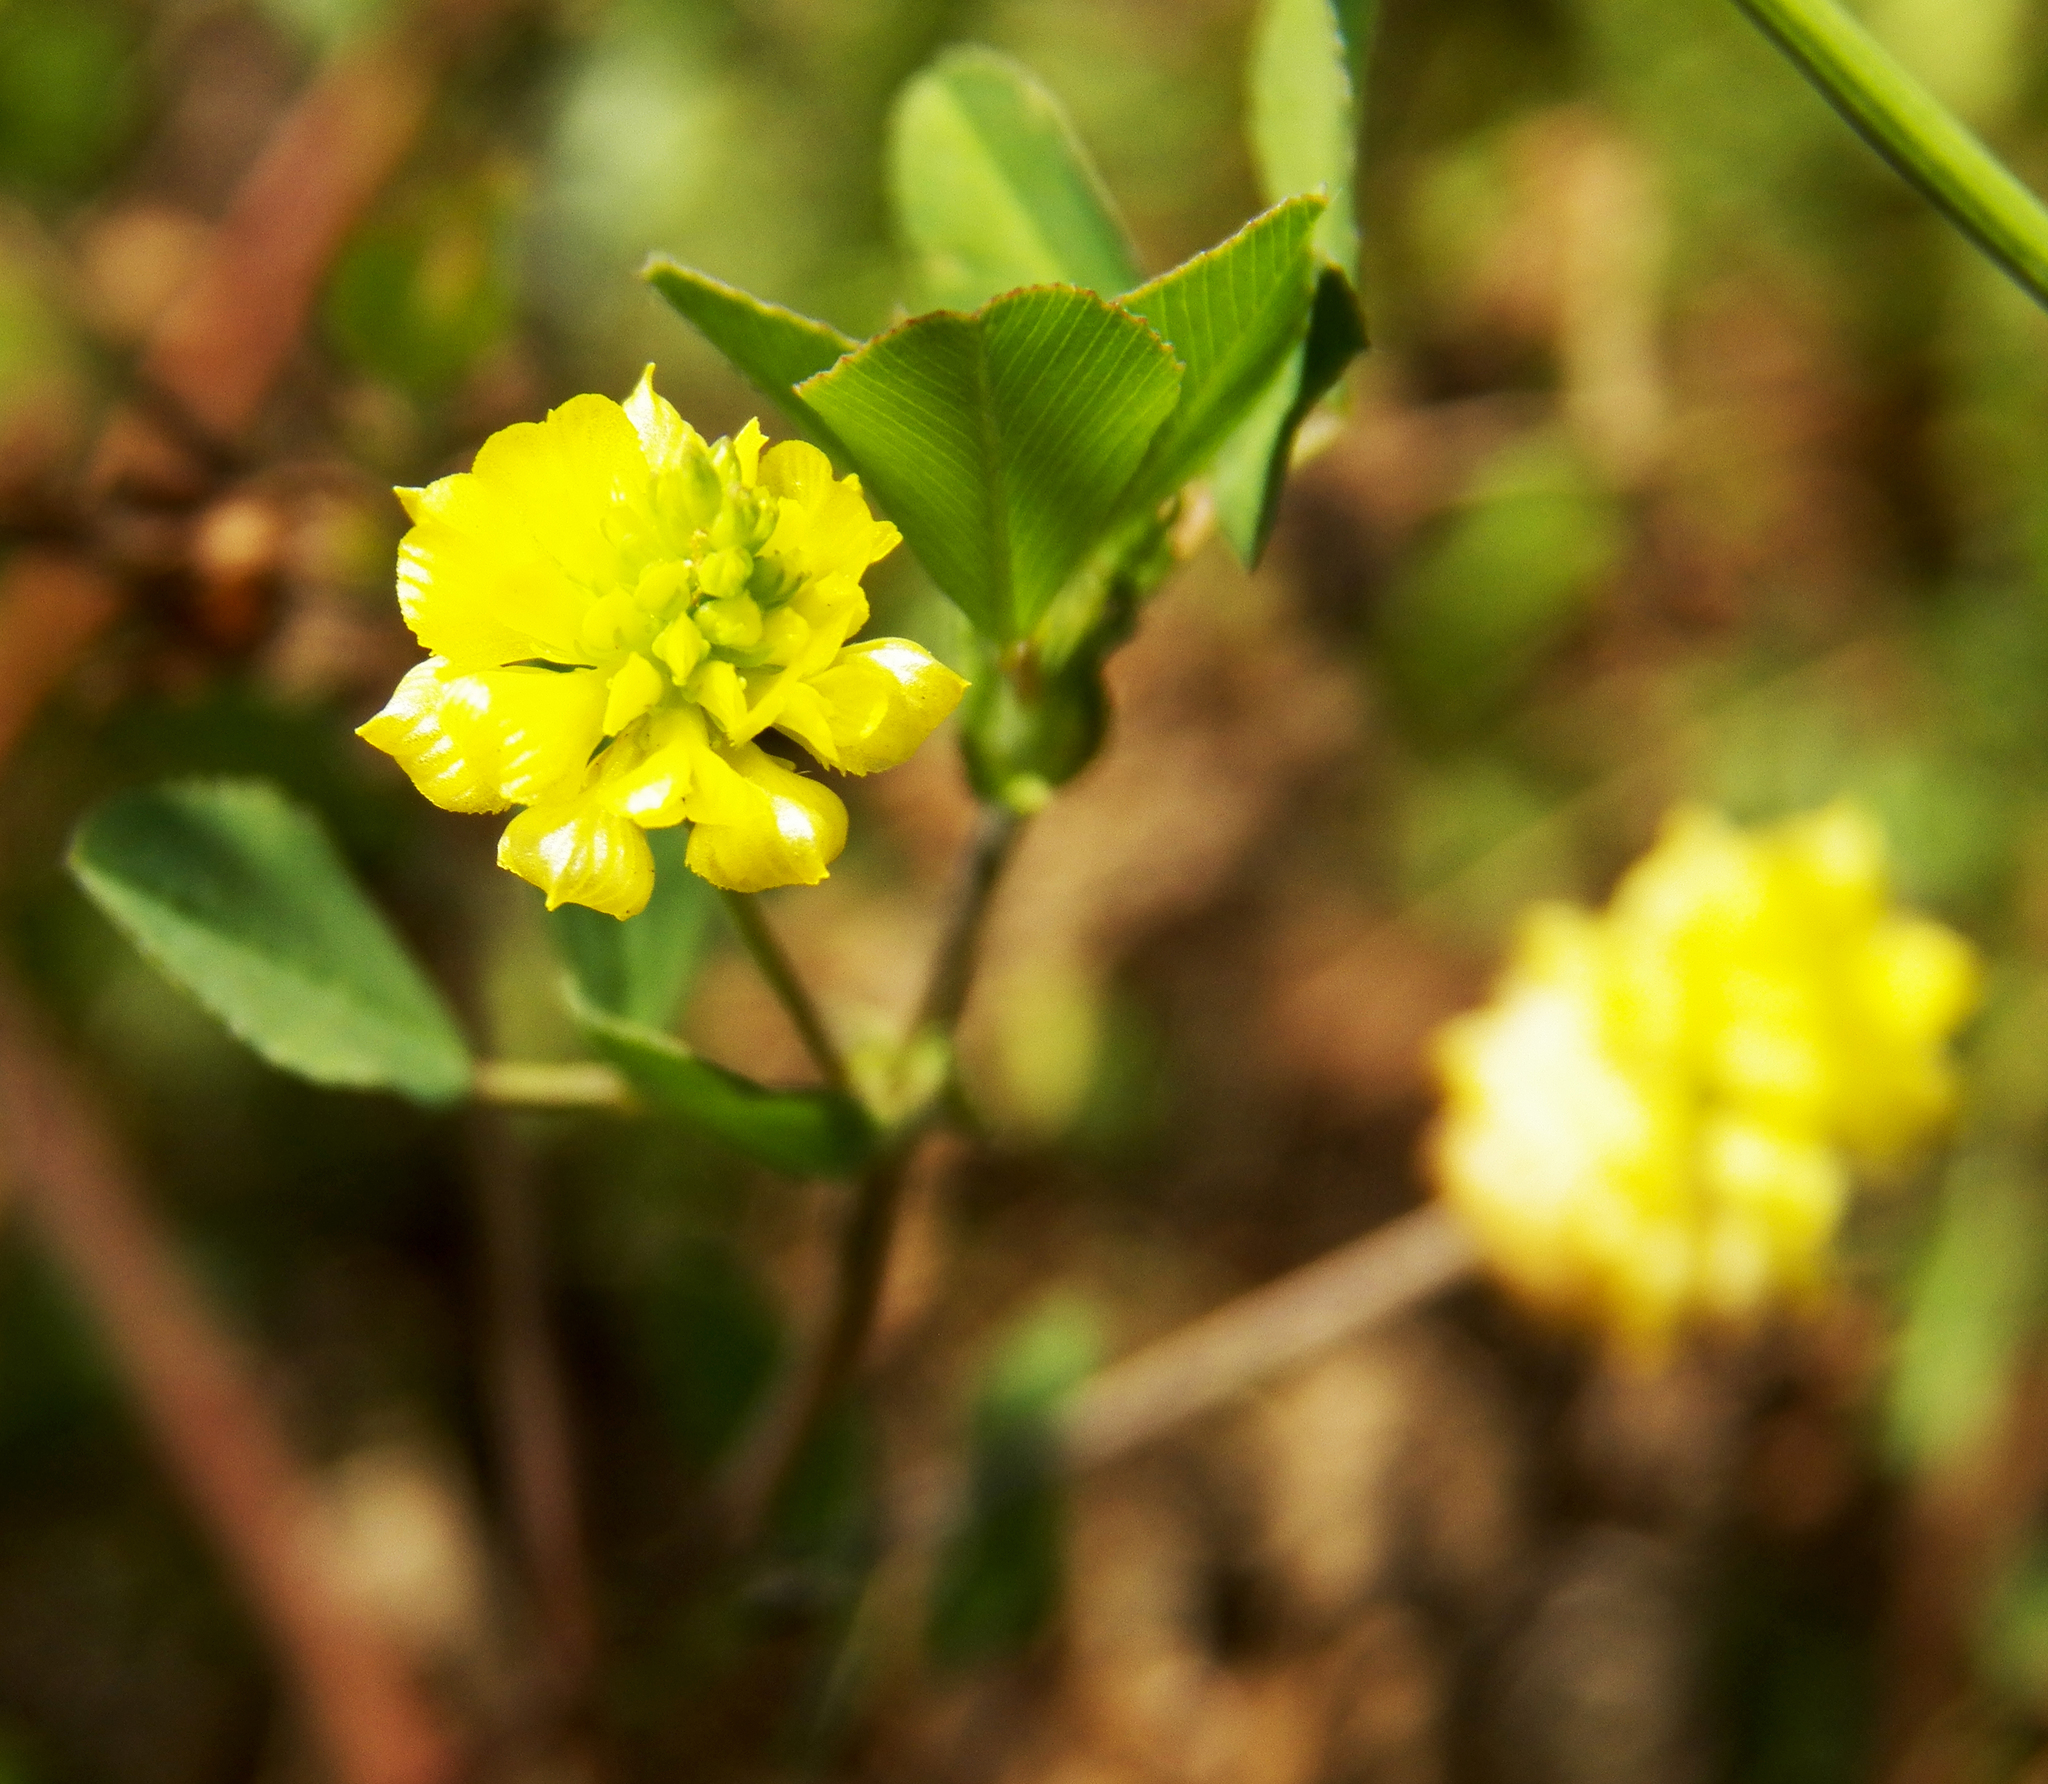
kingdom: Plantae
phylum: Tracheophyta
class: Magnoliopsida
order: Fabales
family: Fabaceae
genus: Trifolium
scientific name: Trifolium campestre
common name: Field clover
